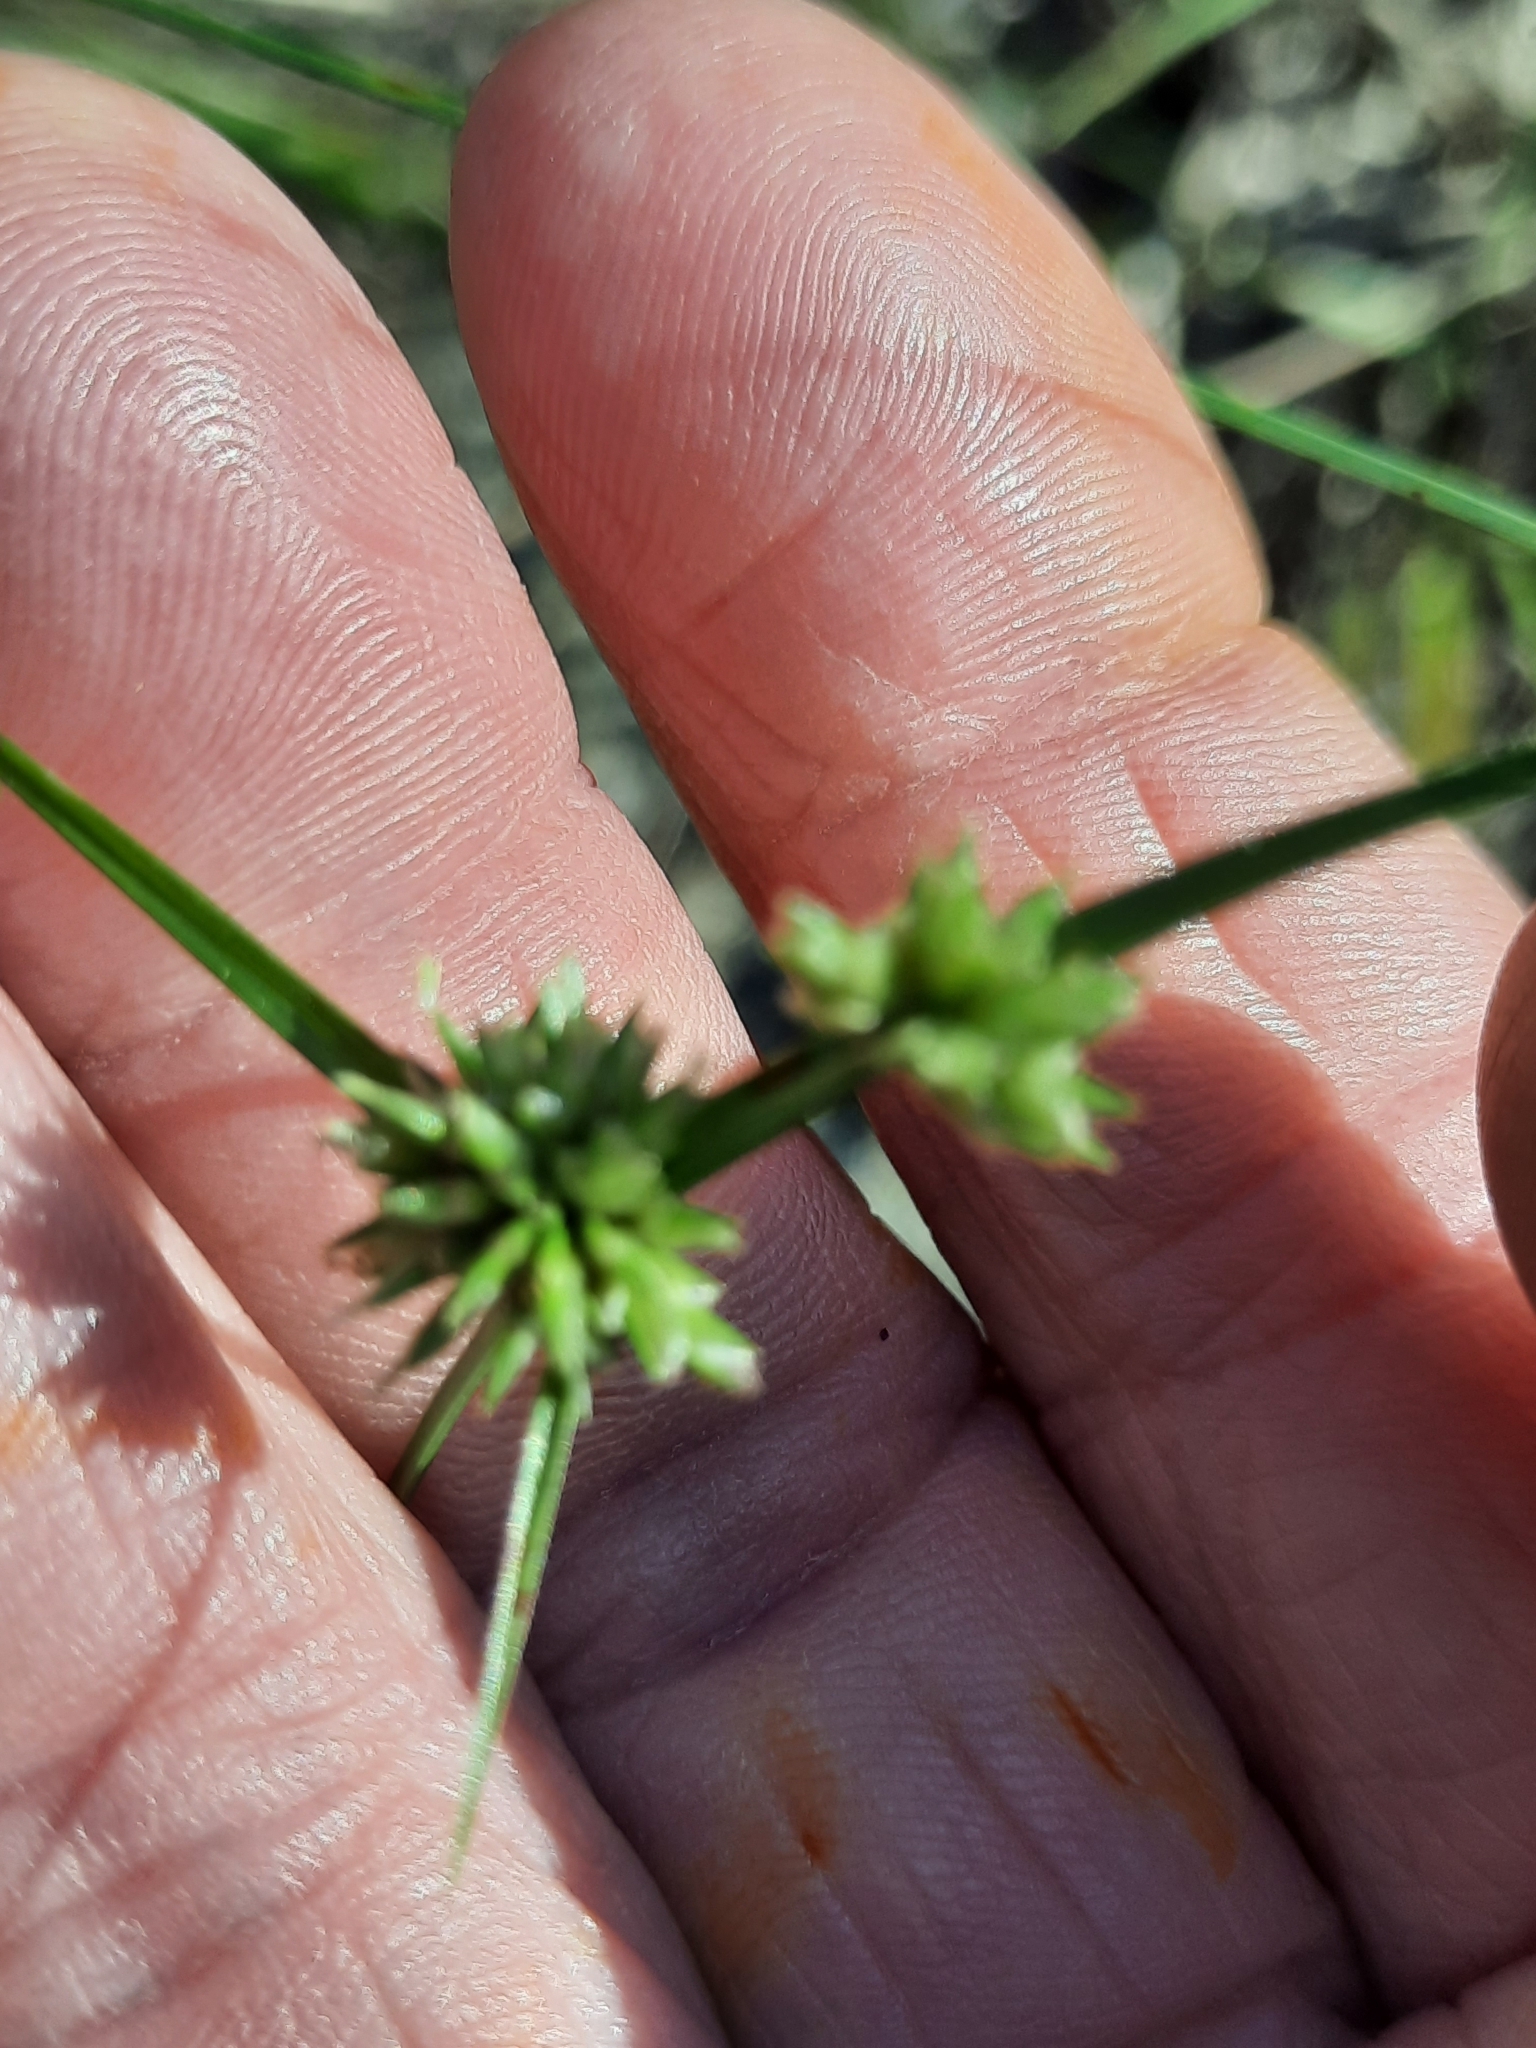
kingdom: Plantae
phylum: Tracheophyta
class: Liliopsida
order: Poales
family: Cyperaceae
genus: Cyperus
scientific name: Cyperus lupulinus
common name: Great plains flatsedge
